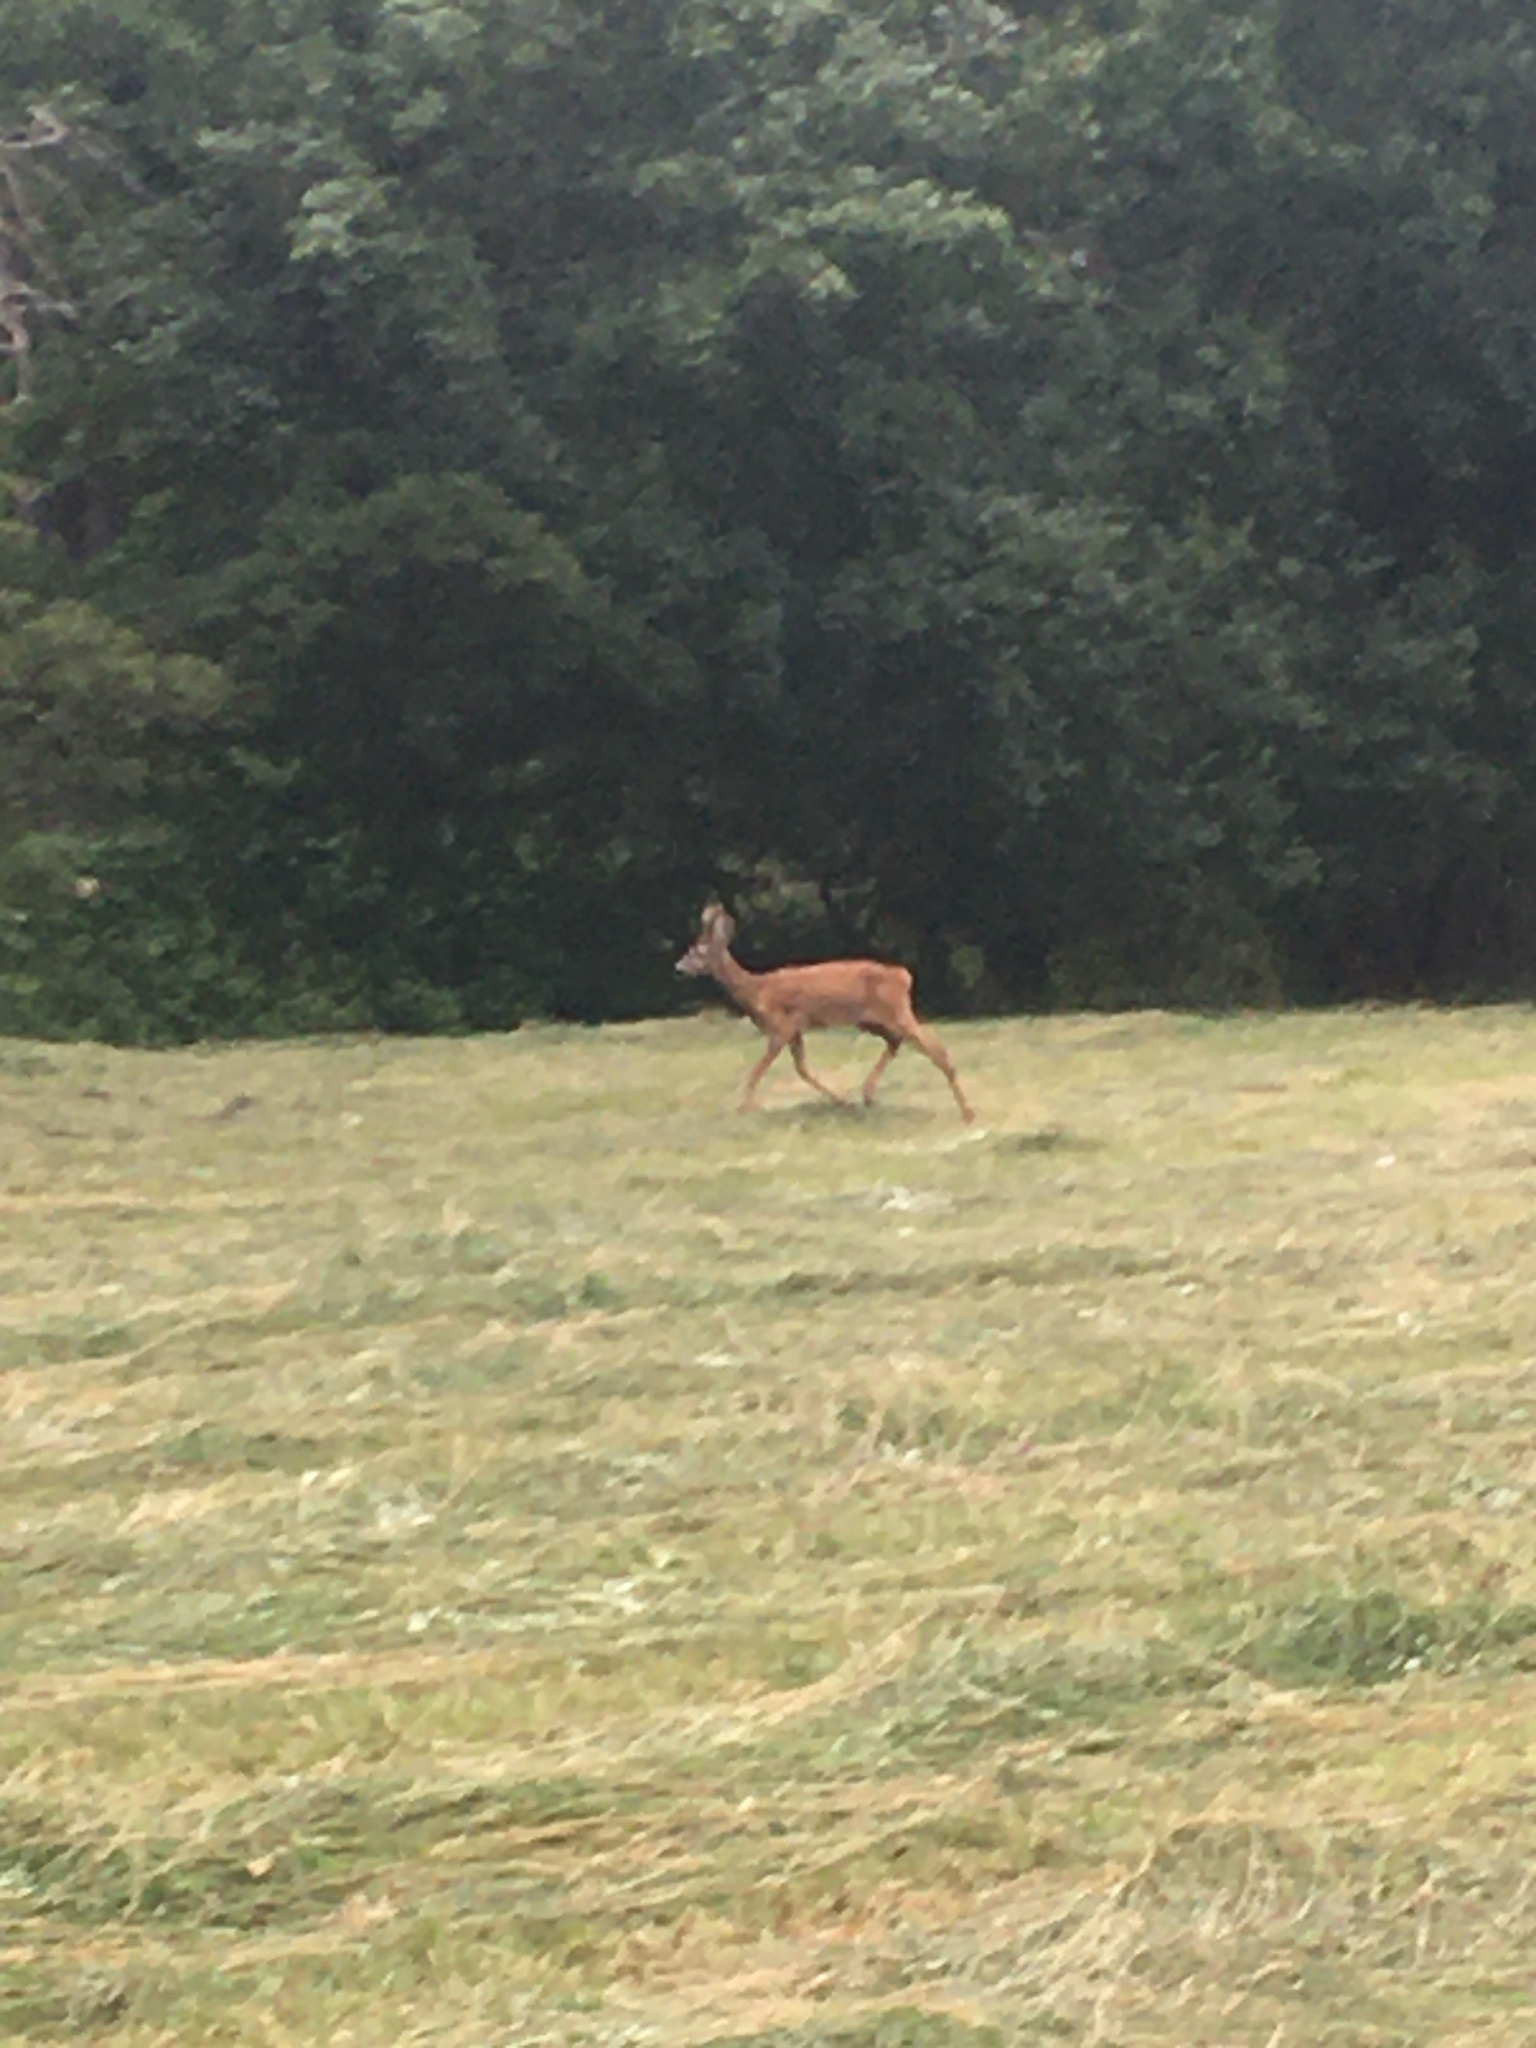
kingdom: Animalia
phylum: Chordata
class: Mammalia
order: Artiodactyla
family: Cervidae
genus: Capreolus
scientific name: Capreolus capreolus
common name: Western roe deer
